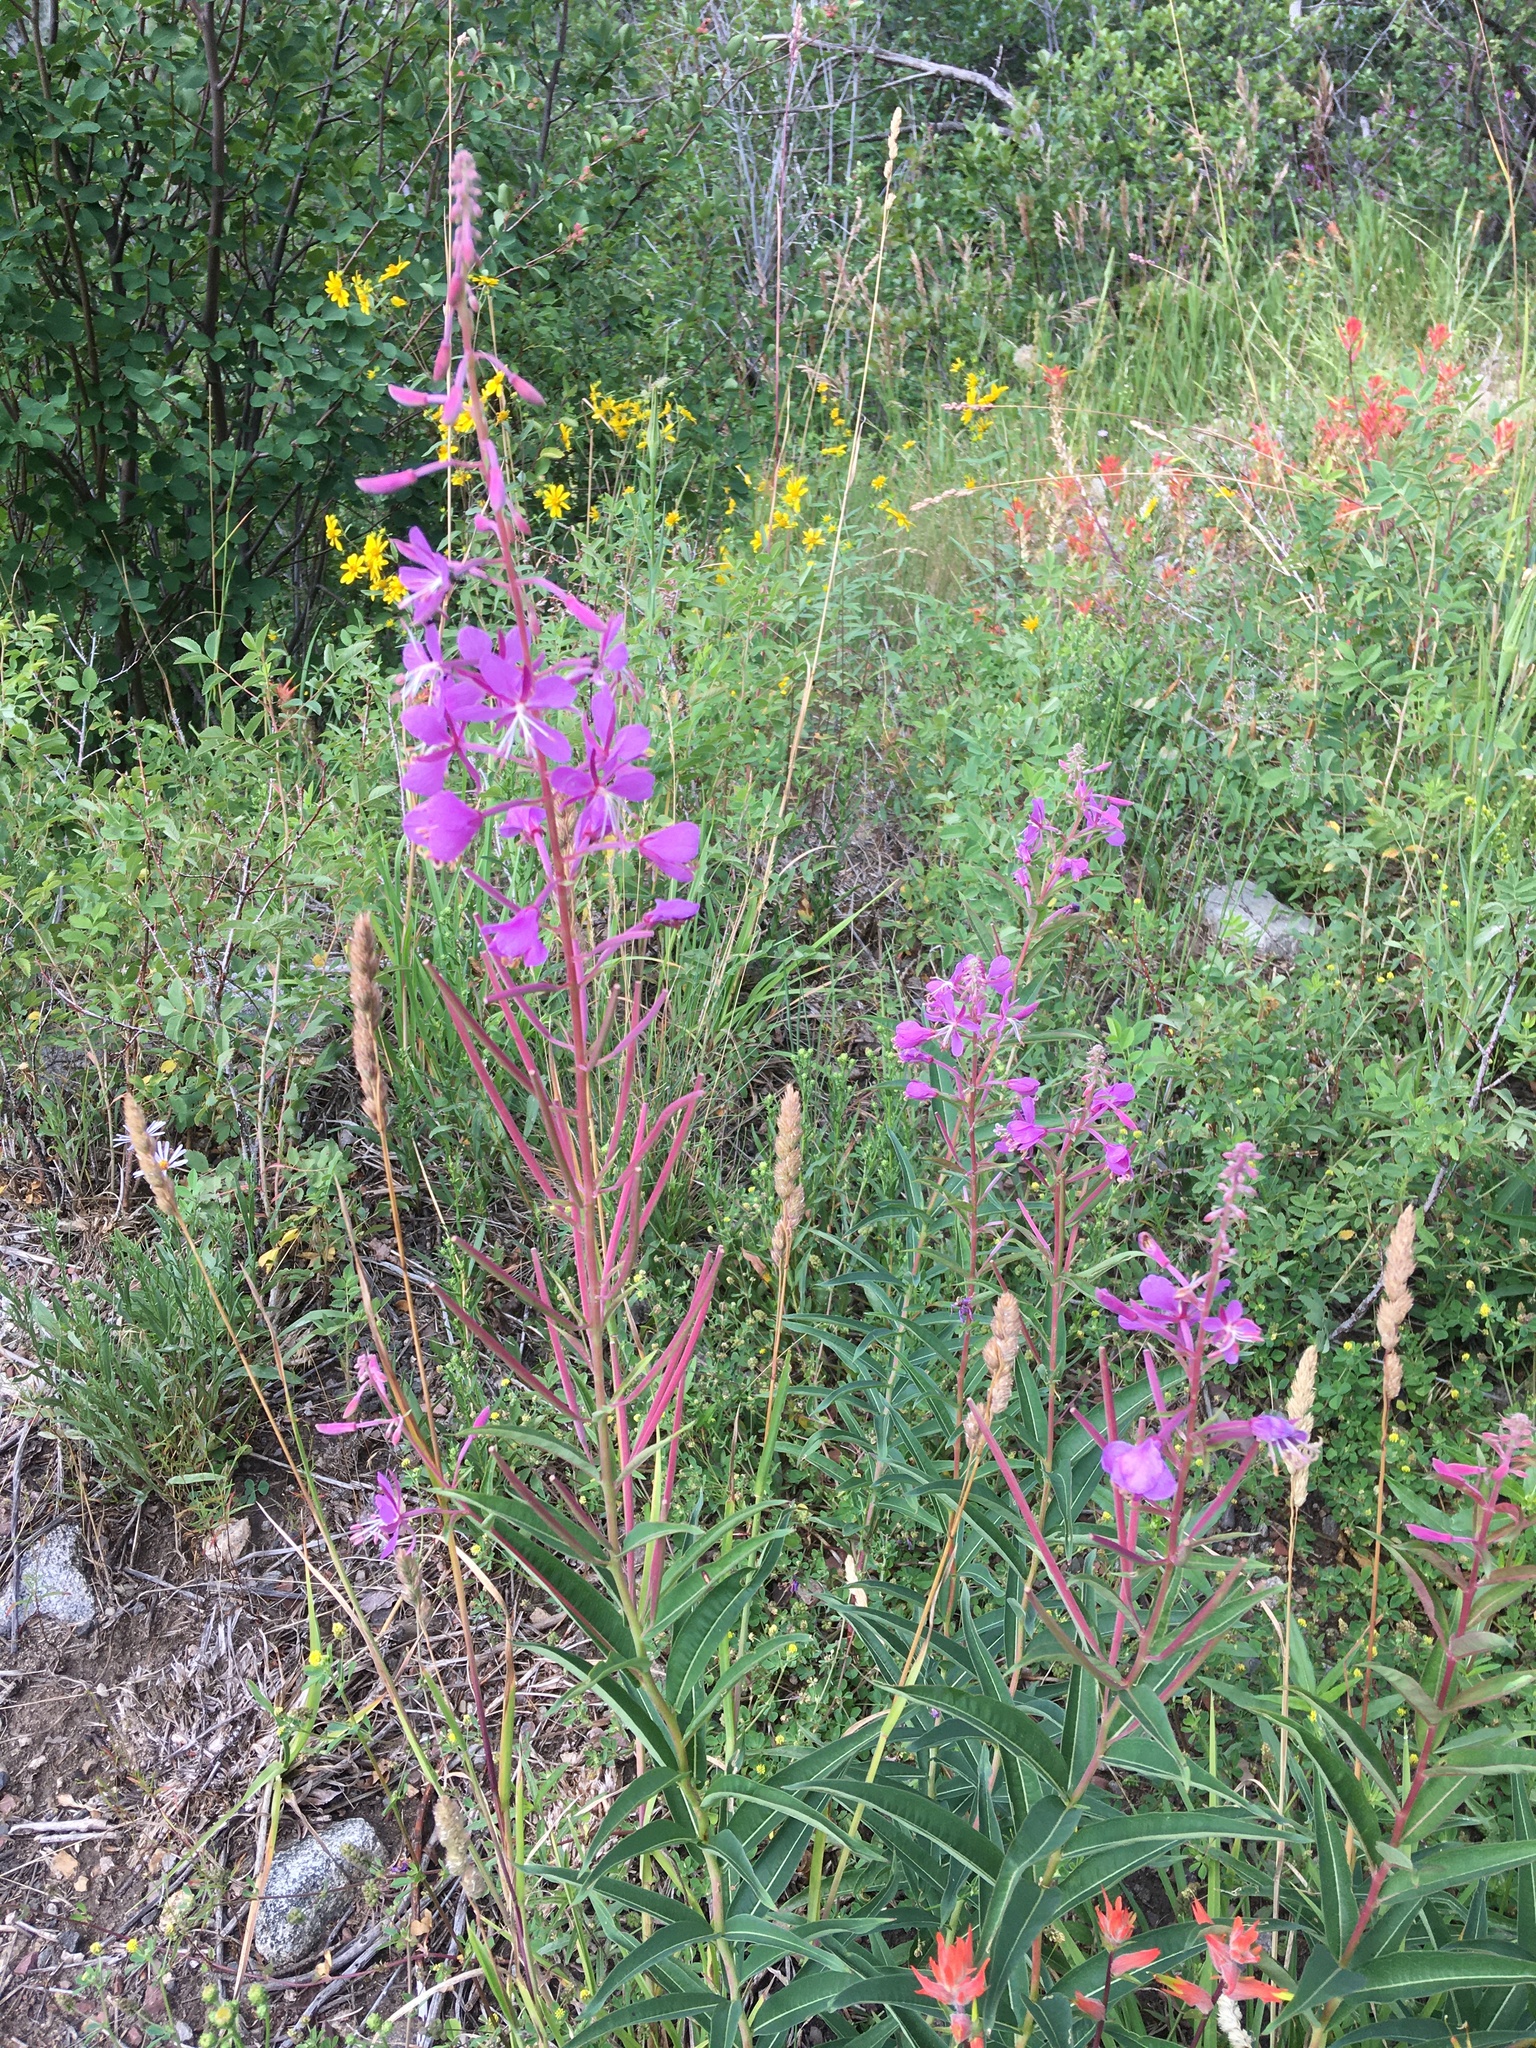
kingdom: Plantae
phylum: Tracheophyta
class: Magnoliopsida
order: Myrtales
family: Onagraceae
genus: Chamaenerion
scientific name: Chamaenerion angustifolium
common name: Fireweed
